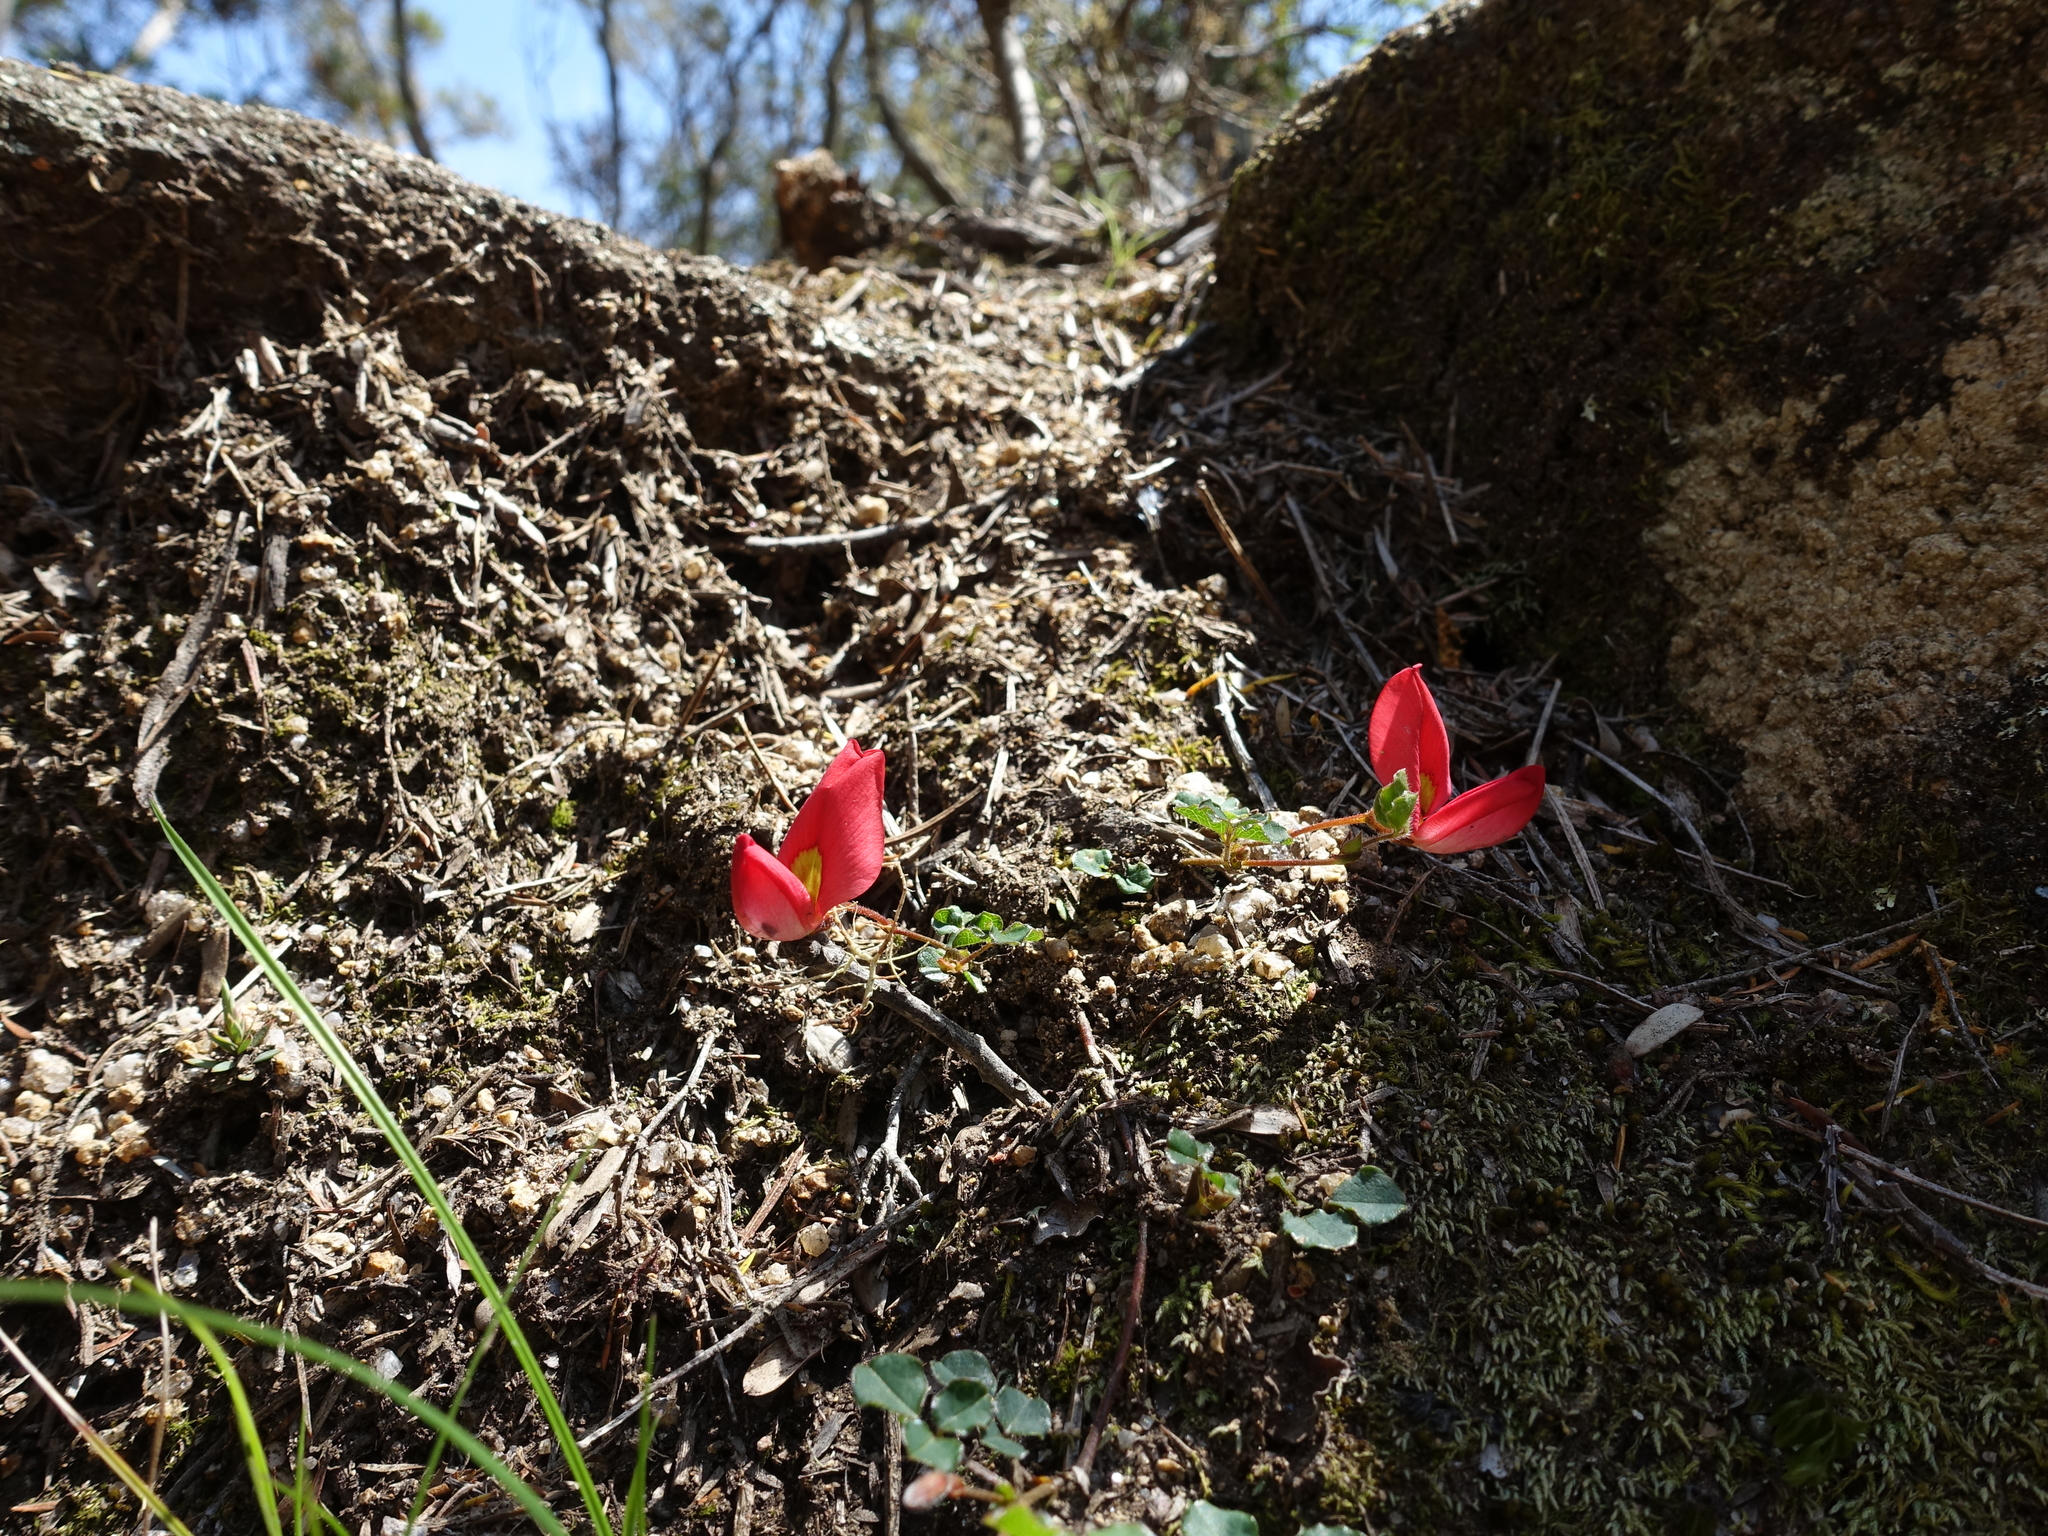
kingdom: Plantae
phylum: Tracheophyta
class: Magnoliopsida
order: Fabales
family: Fabaceae
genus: Kennedia
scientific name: Kennedia prostrata
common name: Running-postman
